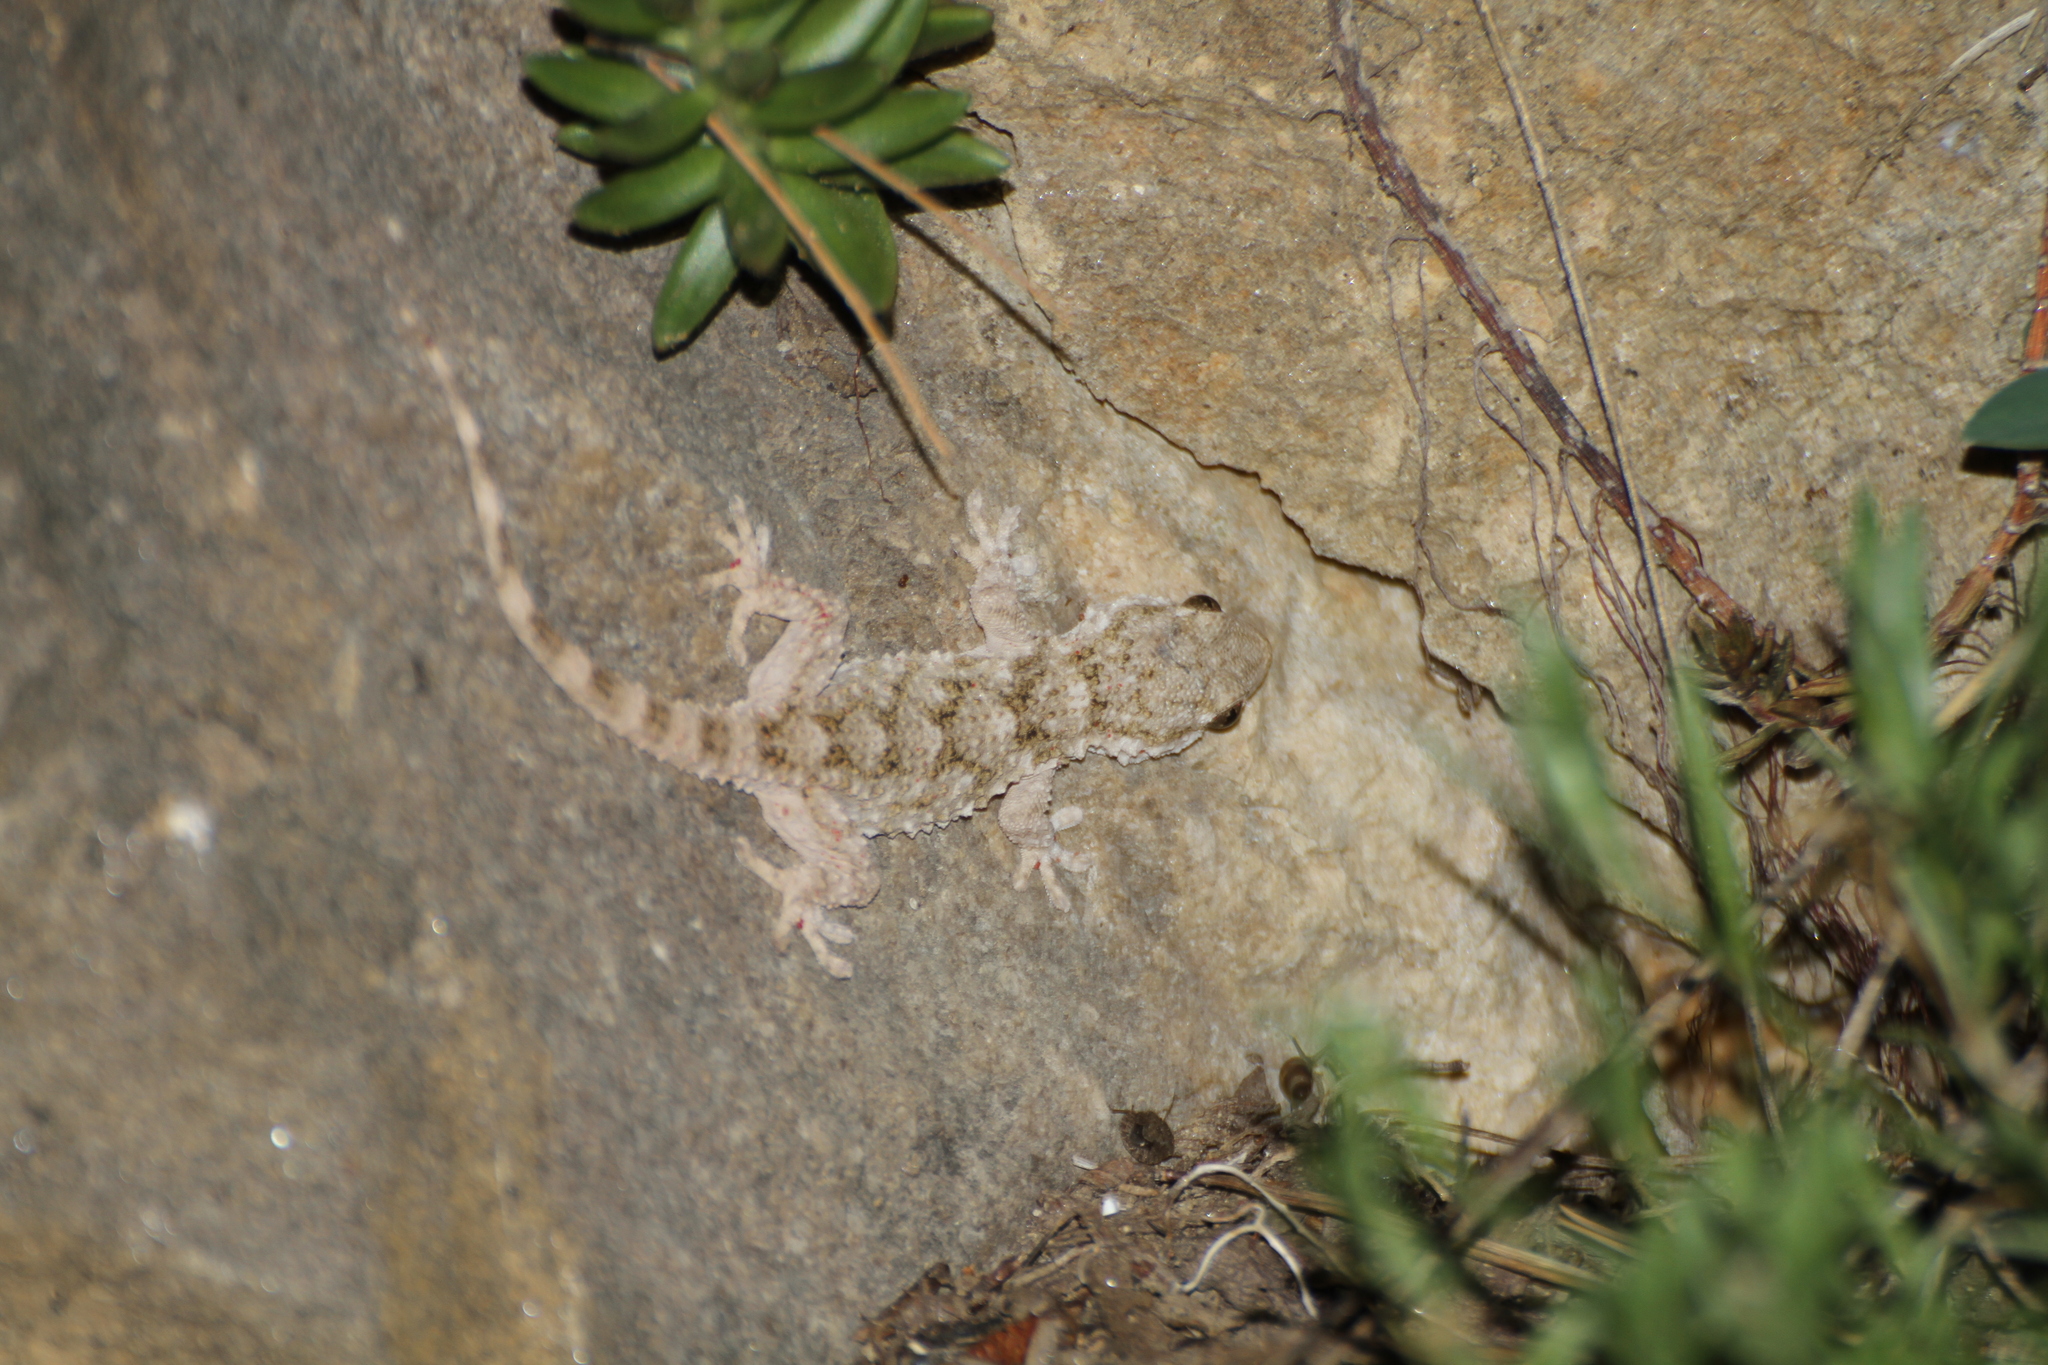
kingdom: Animalia
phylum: Chordata
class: Squamata
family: Phyllodactylidae
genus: Tarentola
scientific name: Tarentola mauritanica
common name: Moorish gecko
